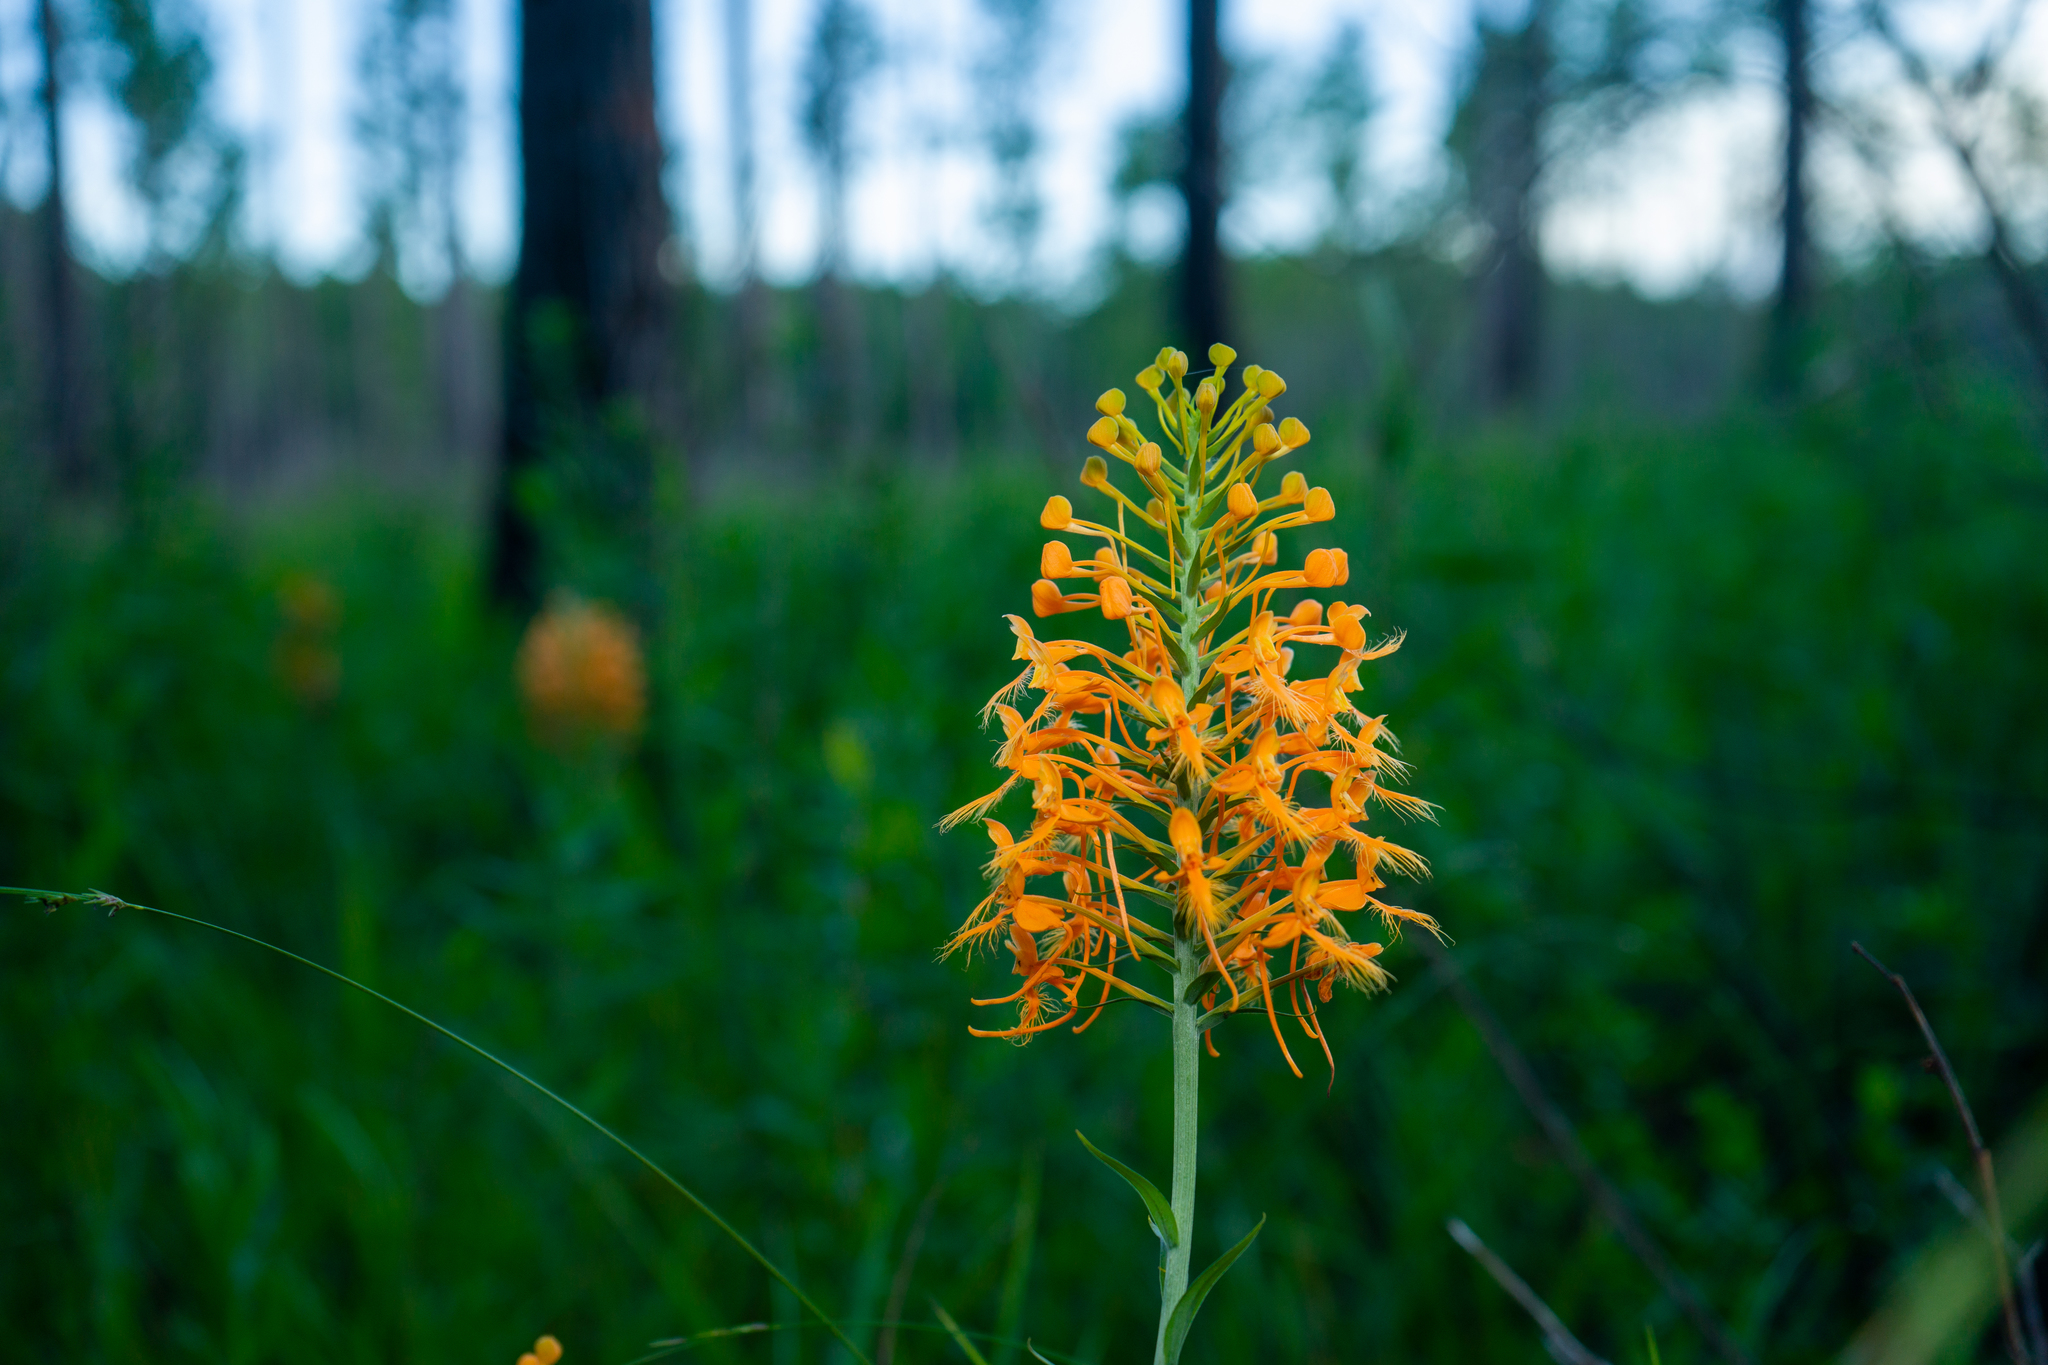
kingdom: Plantae
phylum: Tracheophyta
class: Liliopsida
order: Asparagales
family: Orchidaceae
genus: Platanthera
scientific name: Platanthera ciliaris
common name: Yellow fringed orchid
